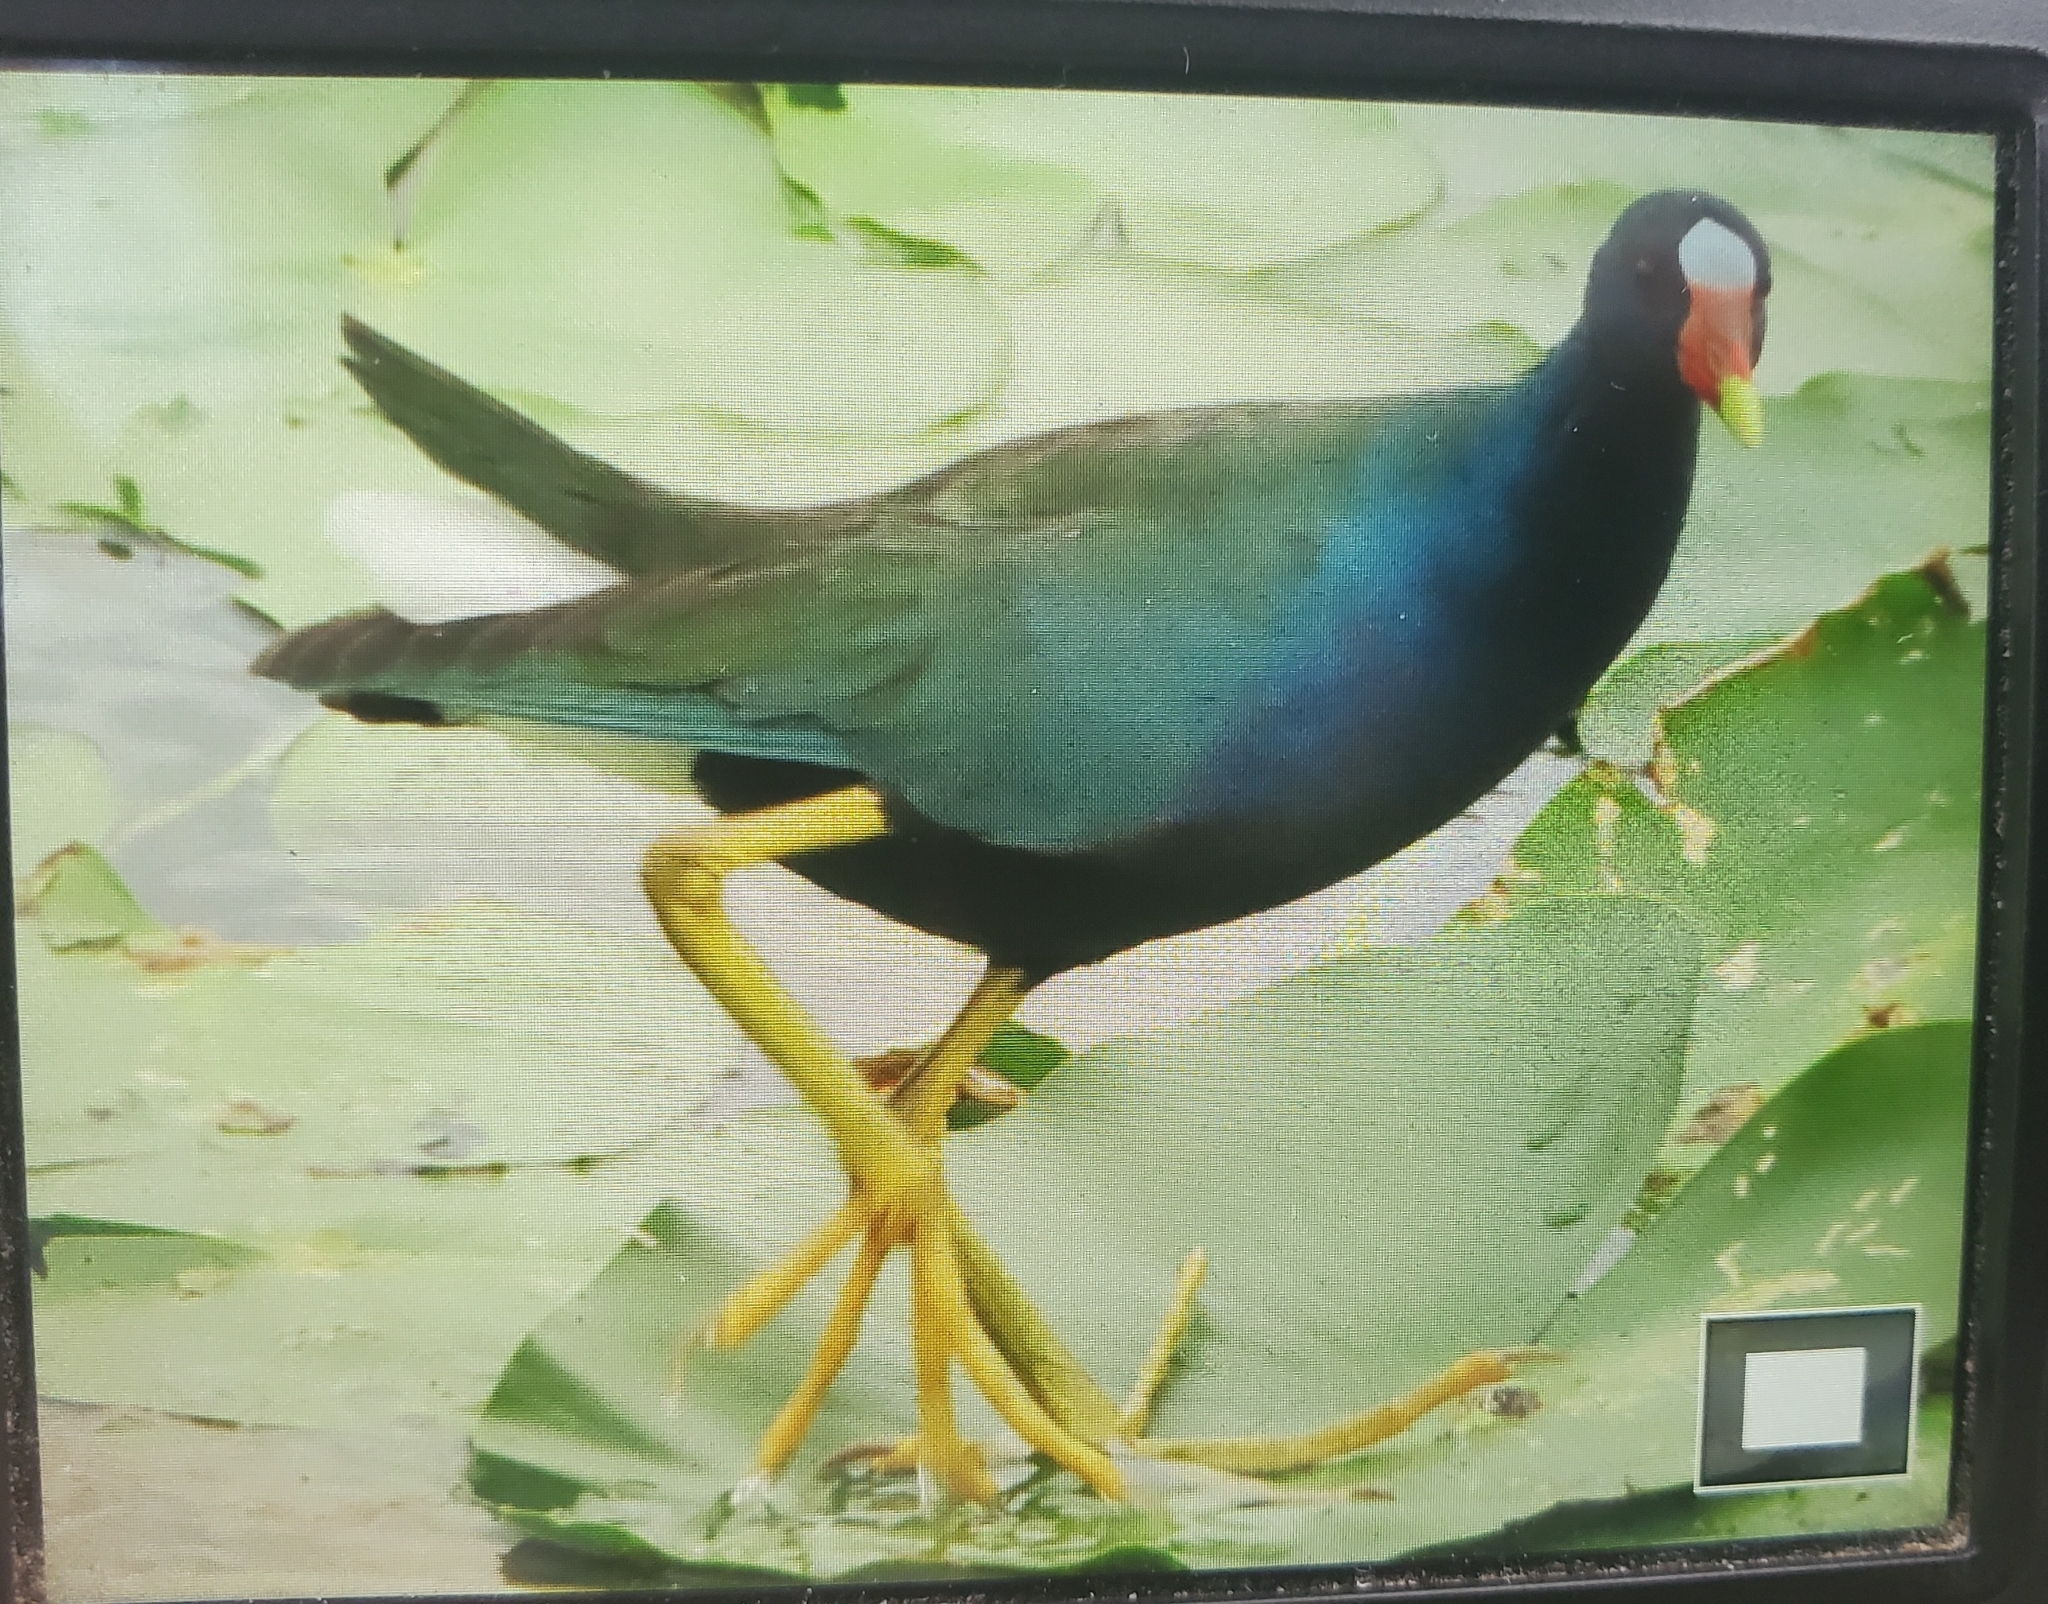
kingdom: Animalia
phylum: Chordata
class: Aves
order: Gruiformes
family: Rallidae
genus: Porphyrio
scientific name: Porphyrio martinica
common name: Purple gallinule
